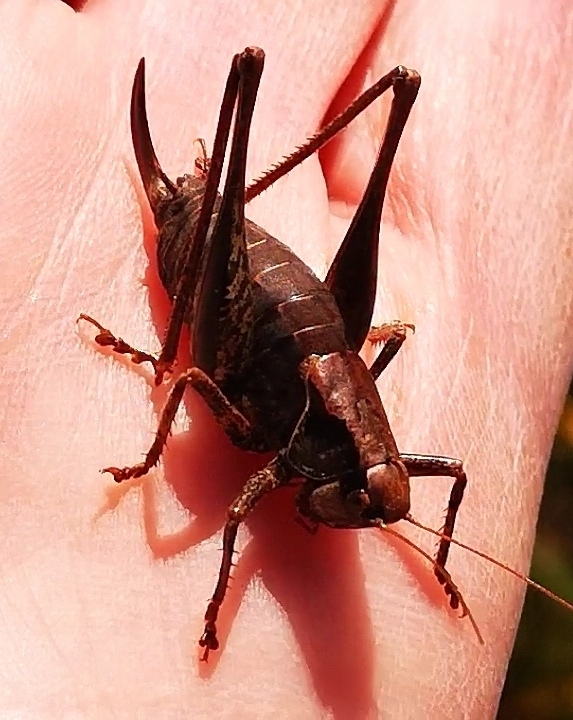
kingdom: Animalia
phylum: Arthropoda
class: Insecta
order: Orthoptera
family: Tettigoniidae
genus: Pholidoptera
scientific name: Pholidoptera griseoaptera
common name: Dark bush-cricket
